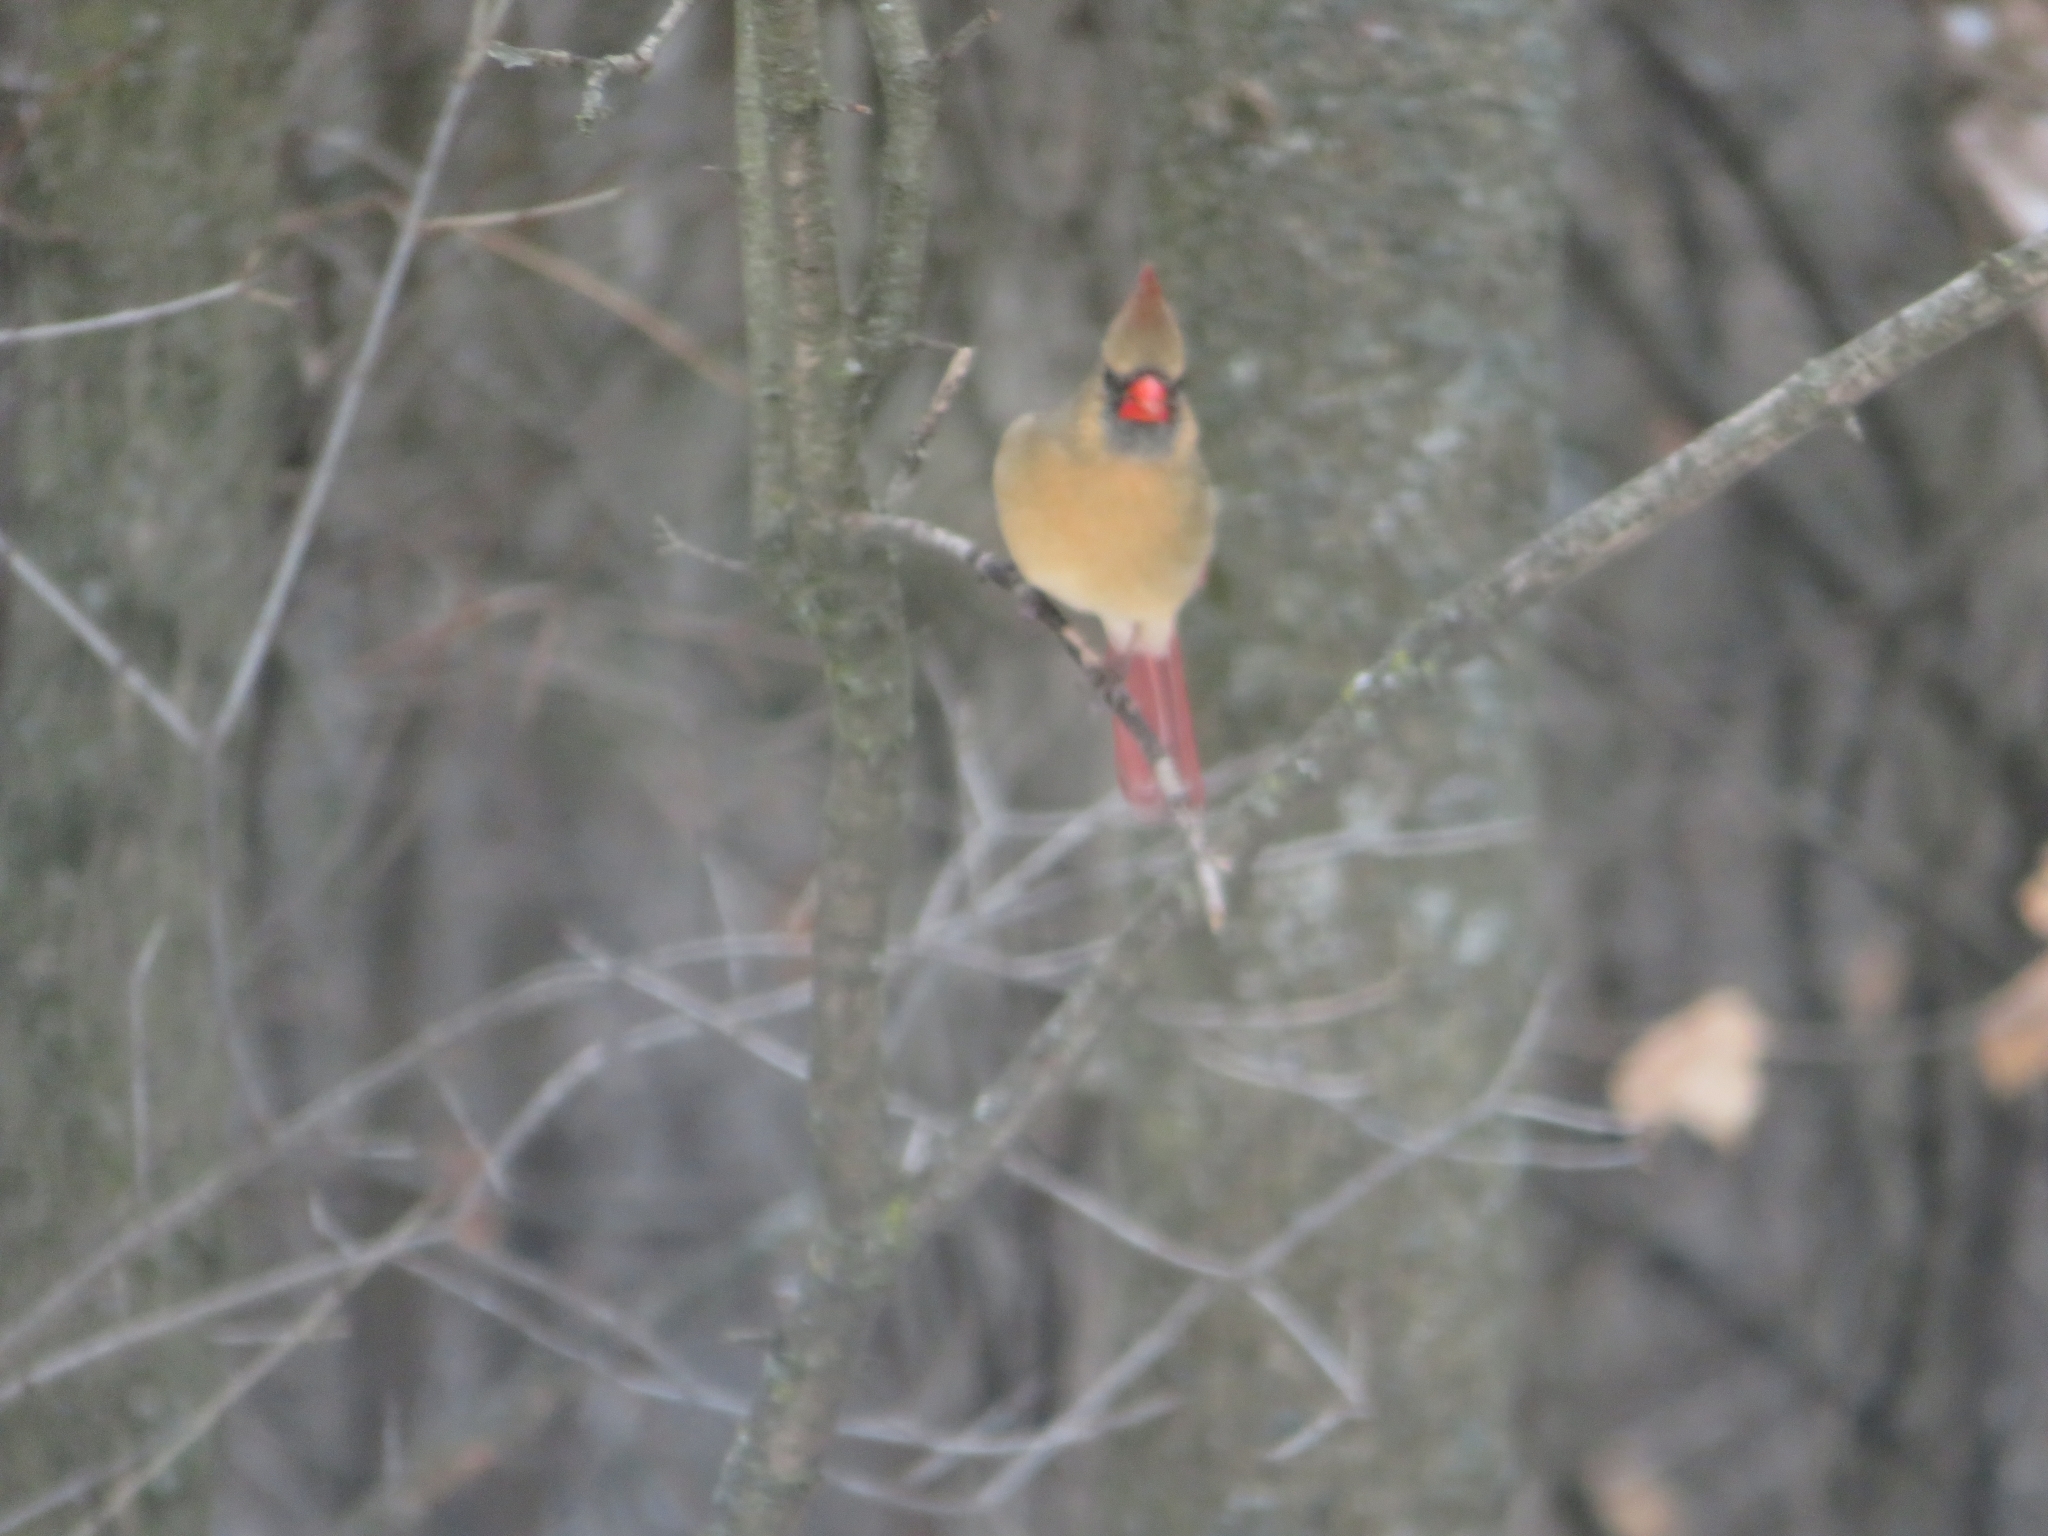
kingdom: Animalia
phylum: Chordata
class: Aves
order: Passeriformes
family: Cardinalidae
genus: Cardinalis
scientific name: Cardinalis cardinalis
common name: Northern cardinal
